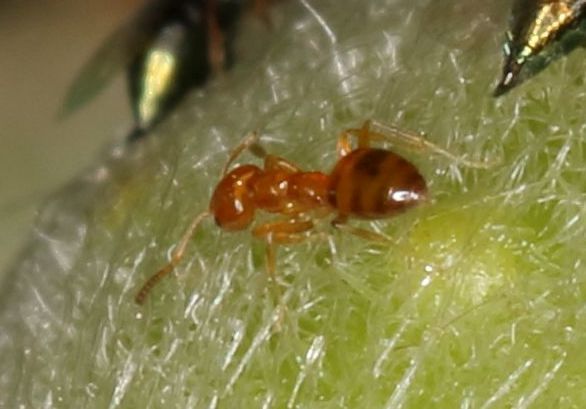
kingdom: Animalia
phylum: Arthropoda
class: Insecta
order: Hymenoptera
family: Formicidae
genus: Plagiolepis
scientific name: Plagiolepis brunni
